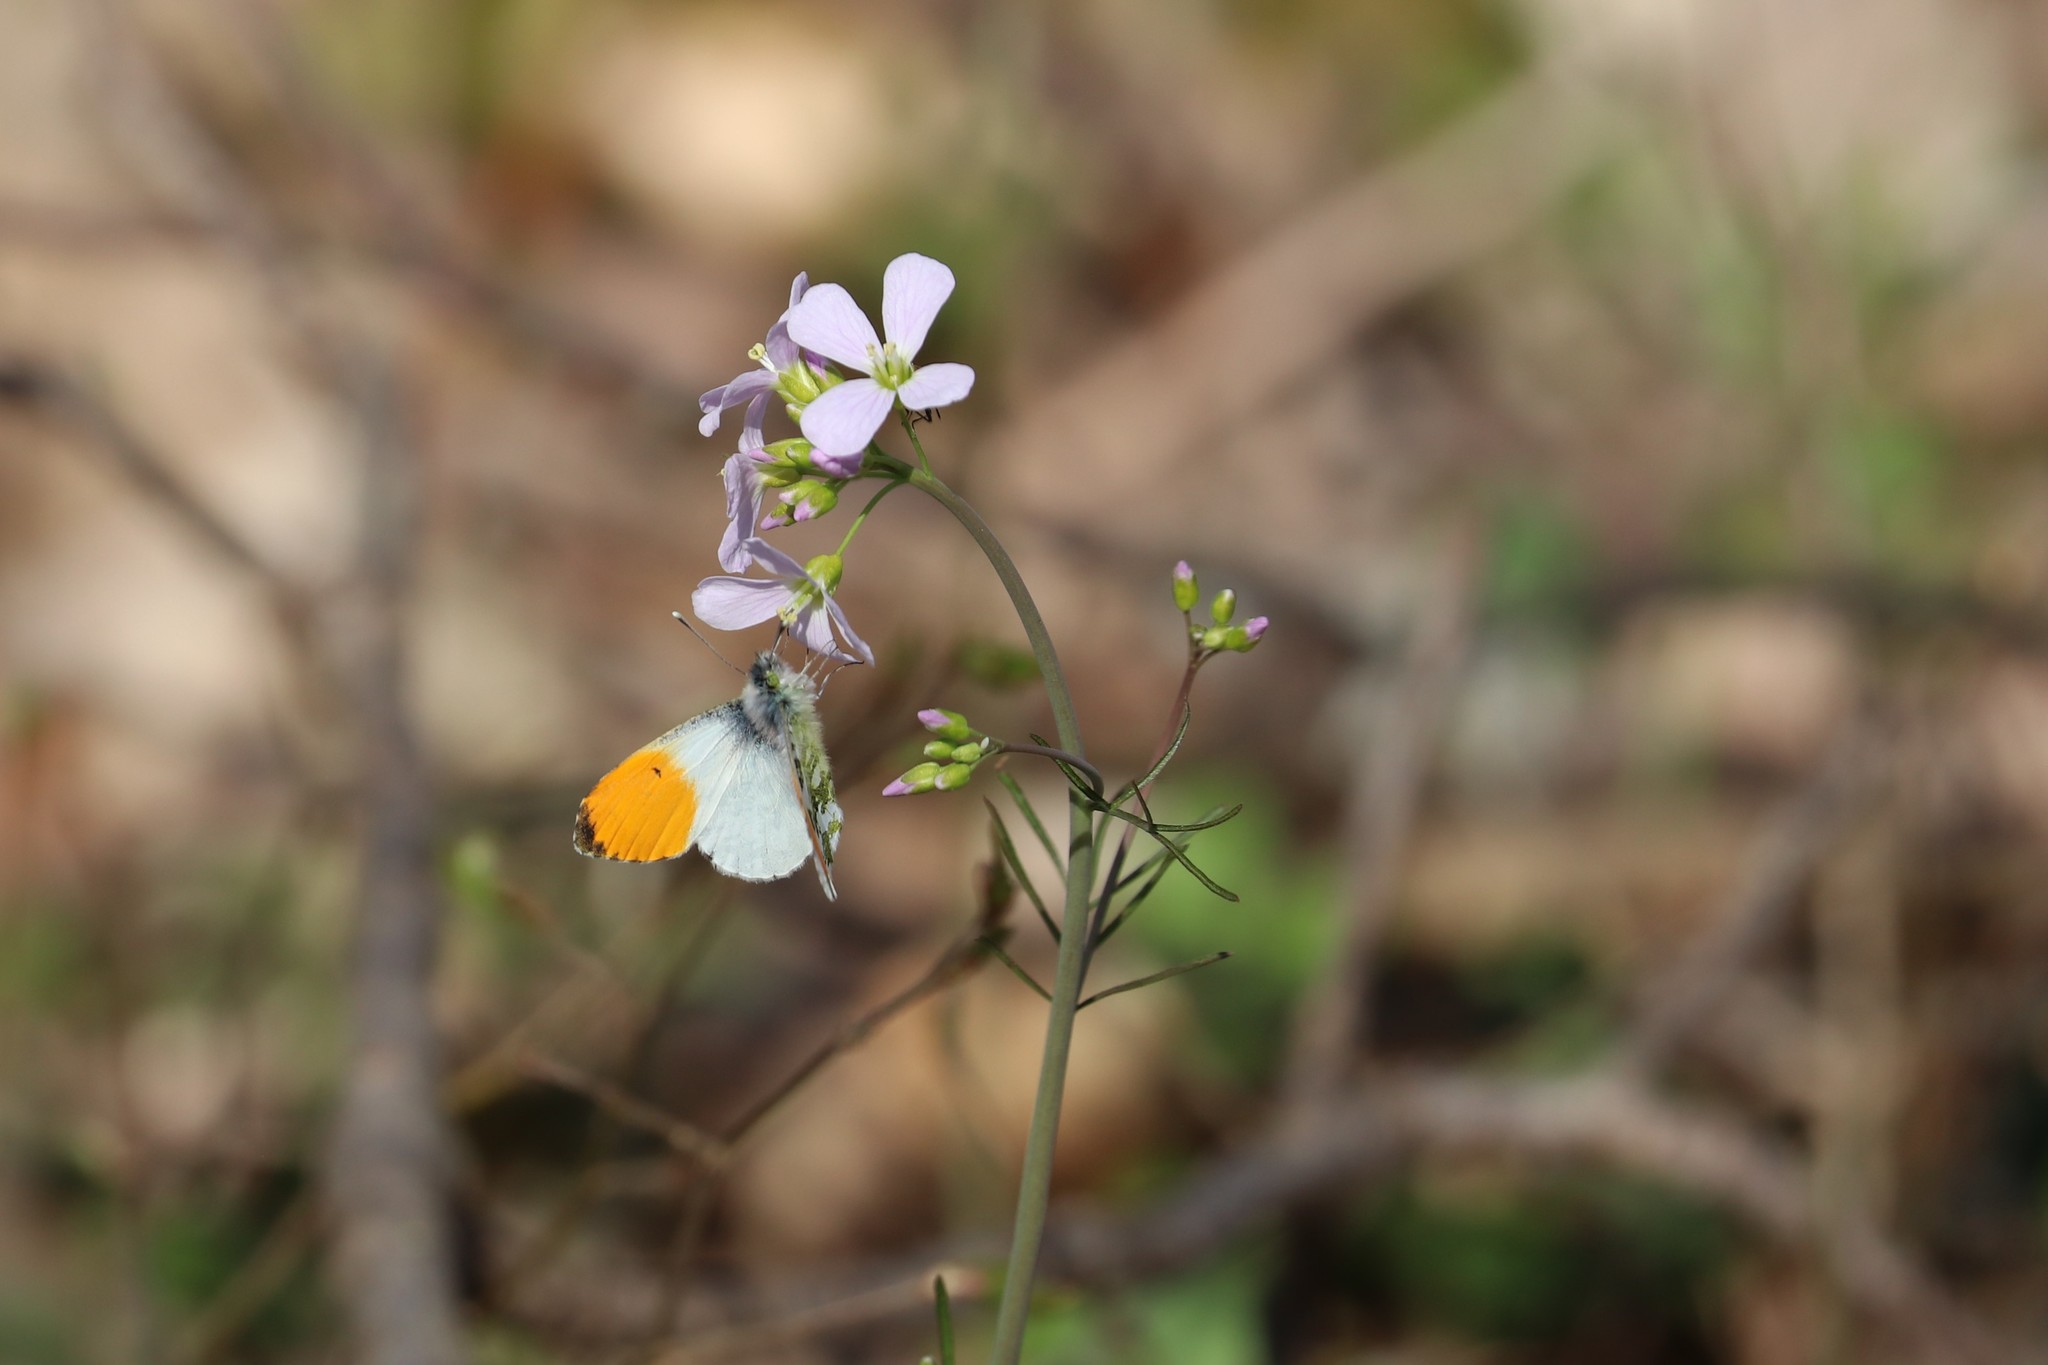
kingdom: Animalia
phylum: Arthropoda
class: Insecta
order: Lepidoptera
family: Pieridae
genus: Anthocharis
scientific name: Anthocharis cardamines
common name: Orange-tip
